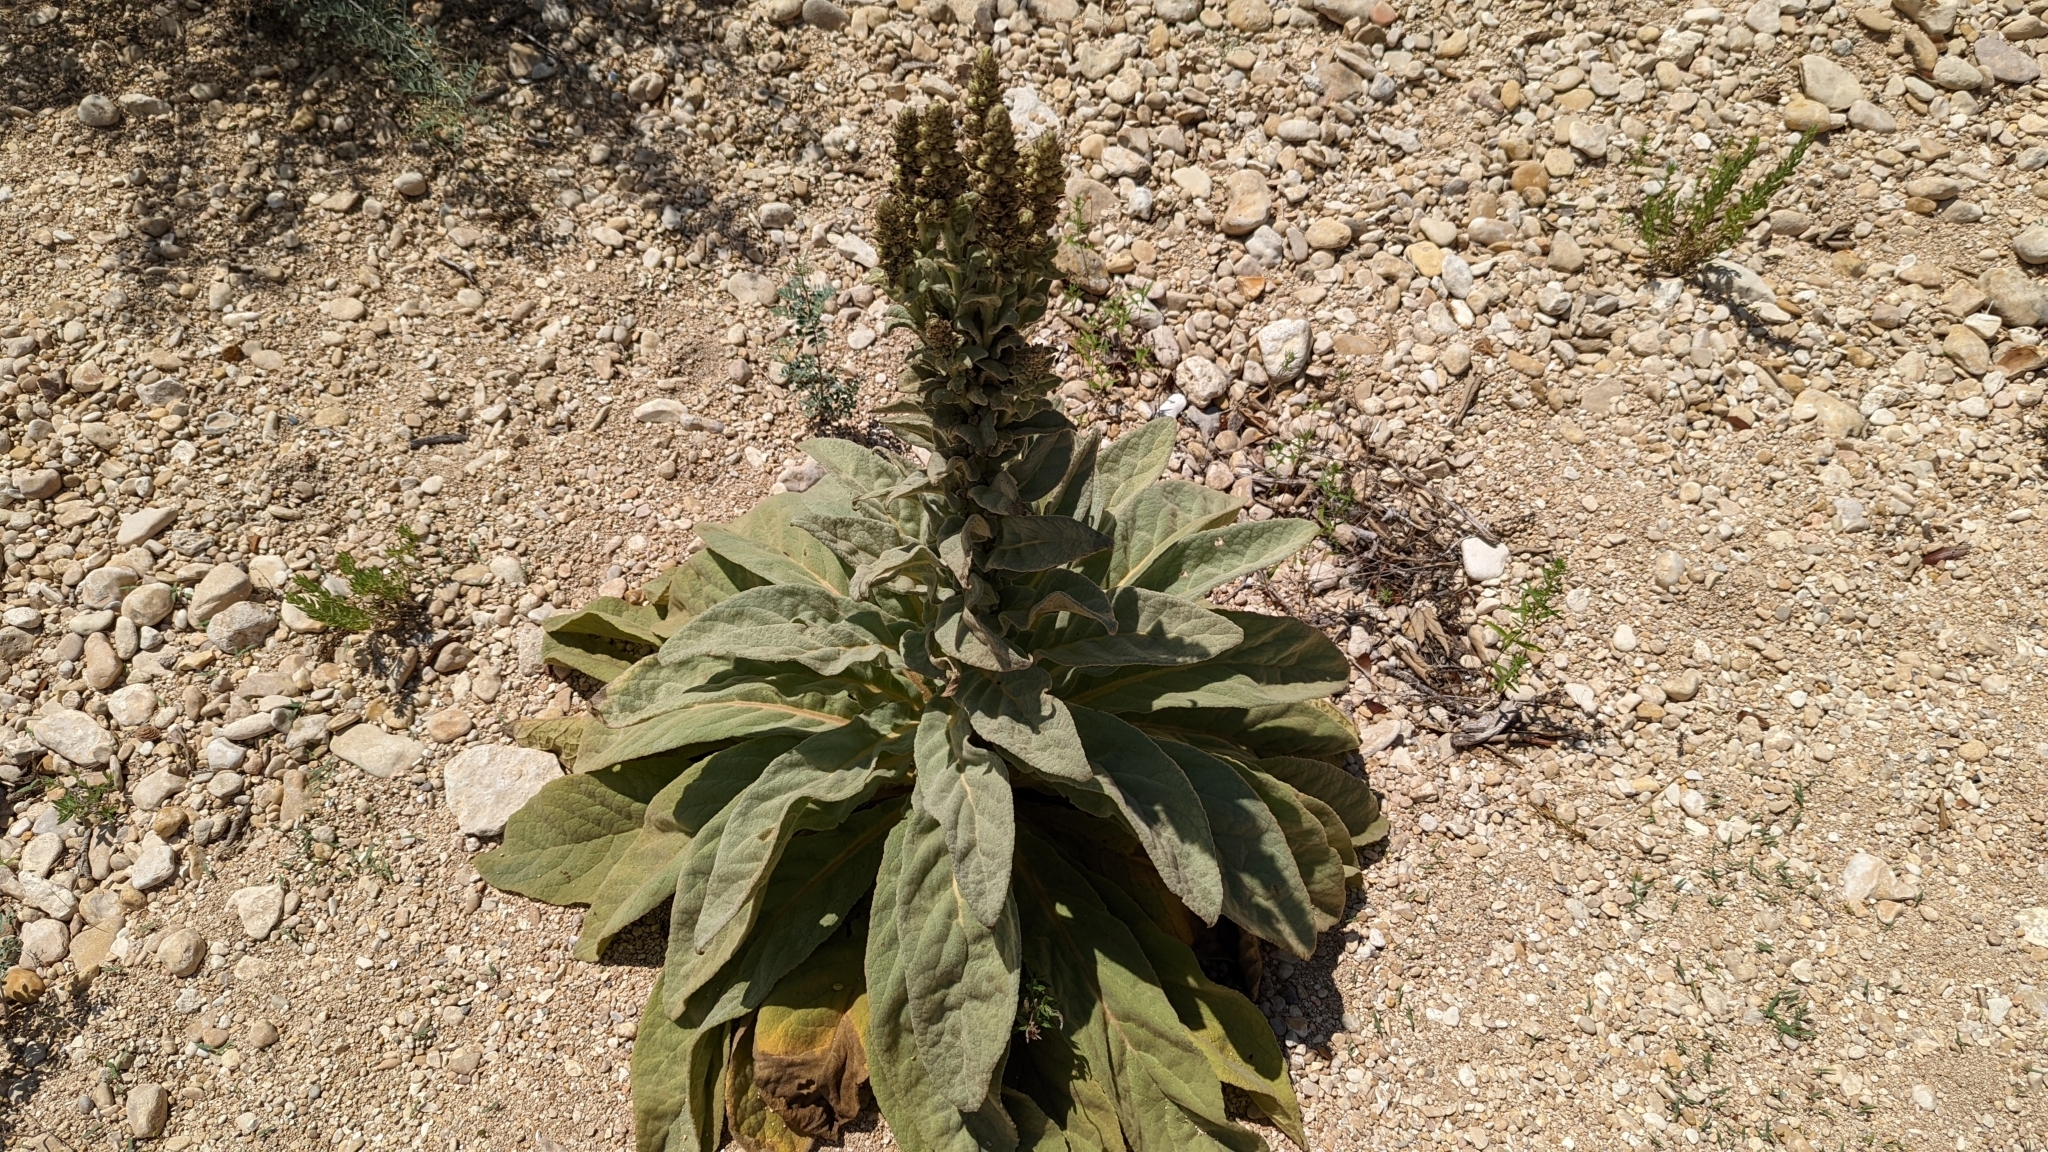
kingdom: Plantae
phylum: Tracheophyta
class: Magnoliopsida
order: Lamiales
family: Scrophulariaceae
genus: Verbascum
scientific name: Verbascum thapsus
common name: Common mullein
